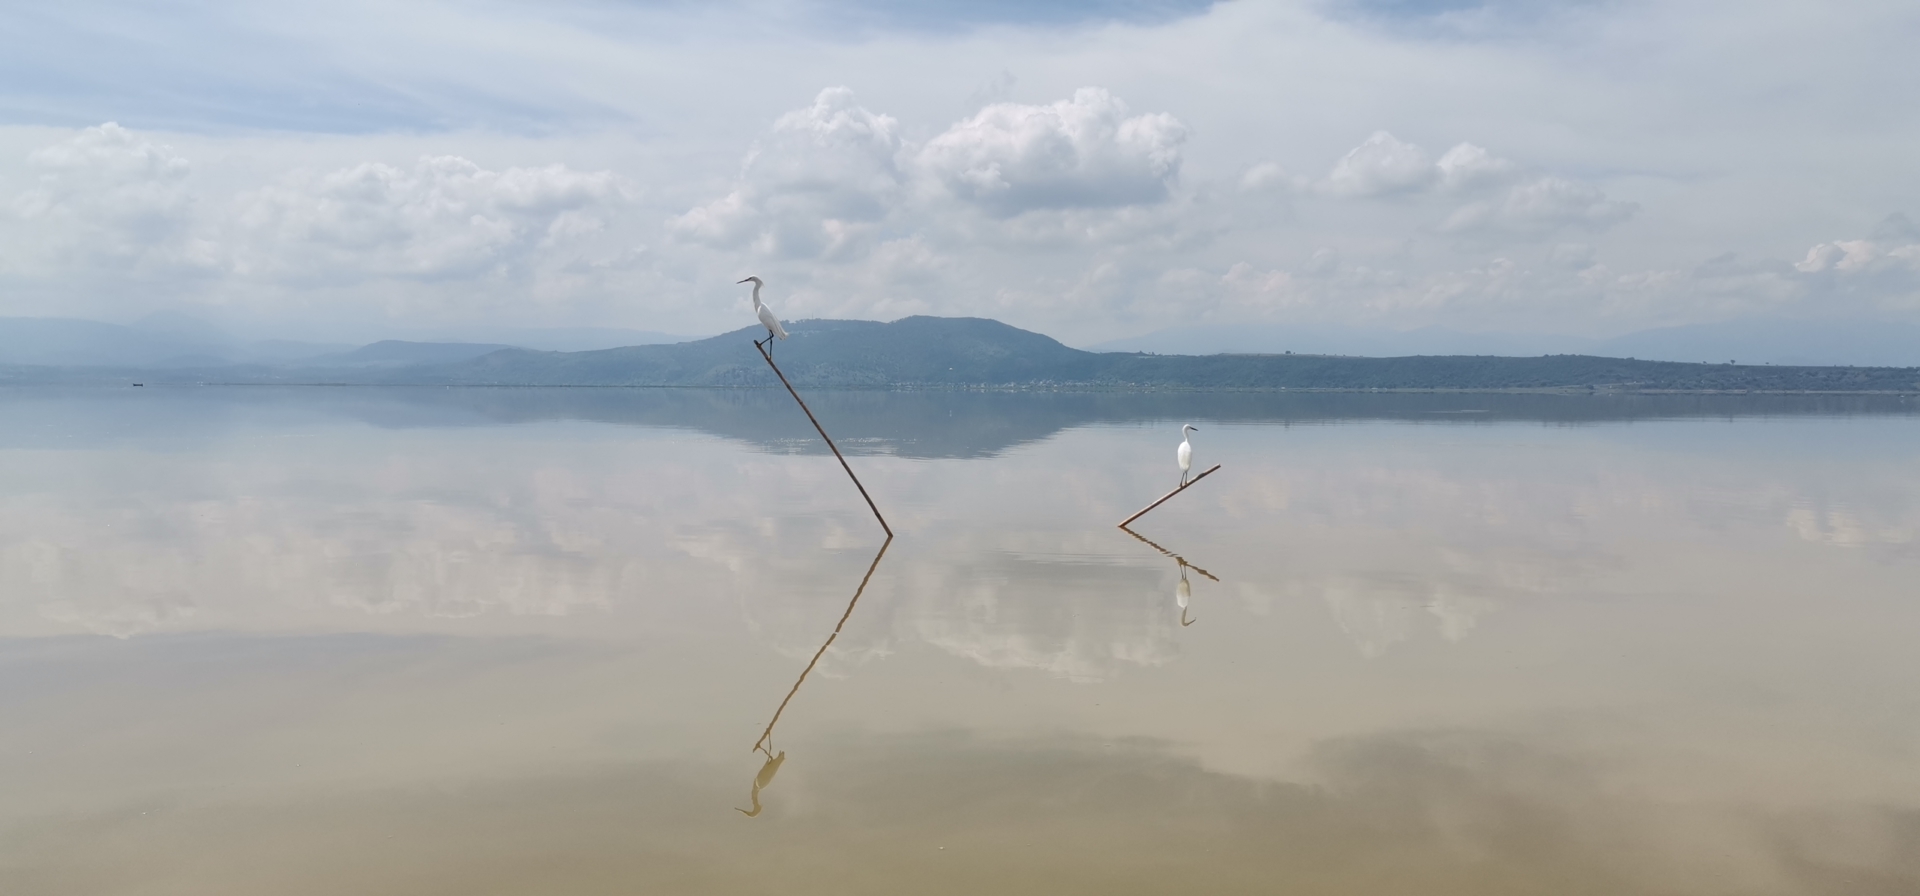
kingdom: Animalia
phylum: Chordata
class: Aves
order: Pelecaniformes
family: Ardeidae
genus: Ardea
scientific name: Ardea alba
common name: Great egret
